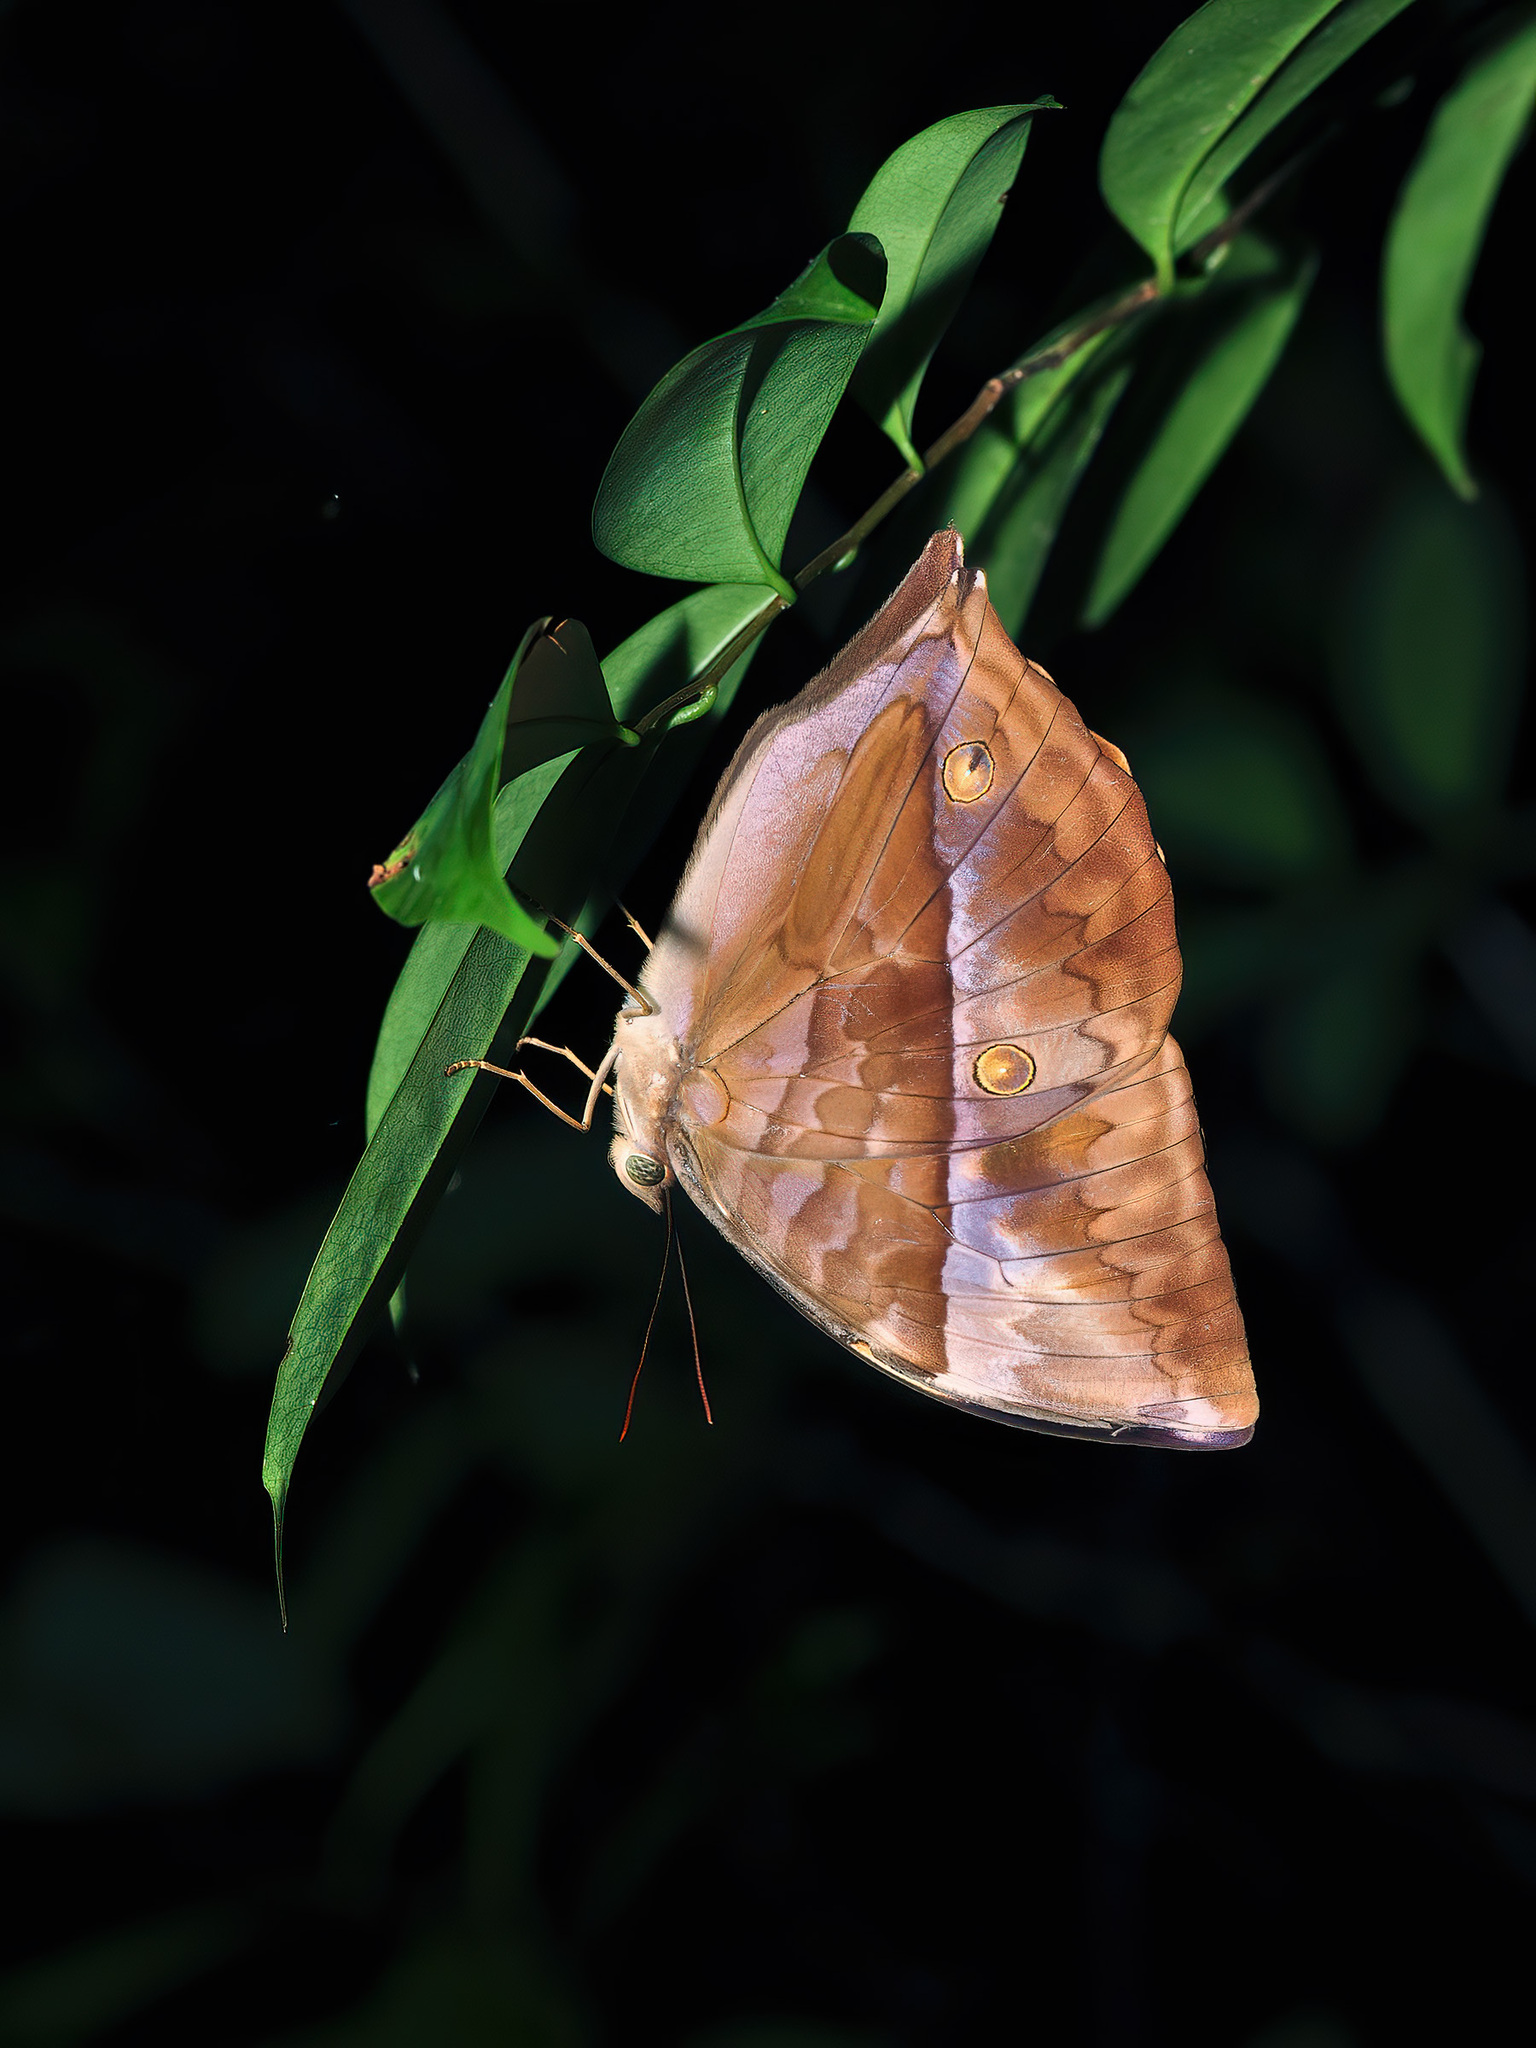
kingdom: Animalia
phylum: Arthropoda
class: Insecta
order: Lepidoptera
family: Nymphalidae
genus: Zeuxidia
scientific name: Zeuxidia amethysta
